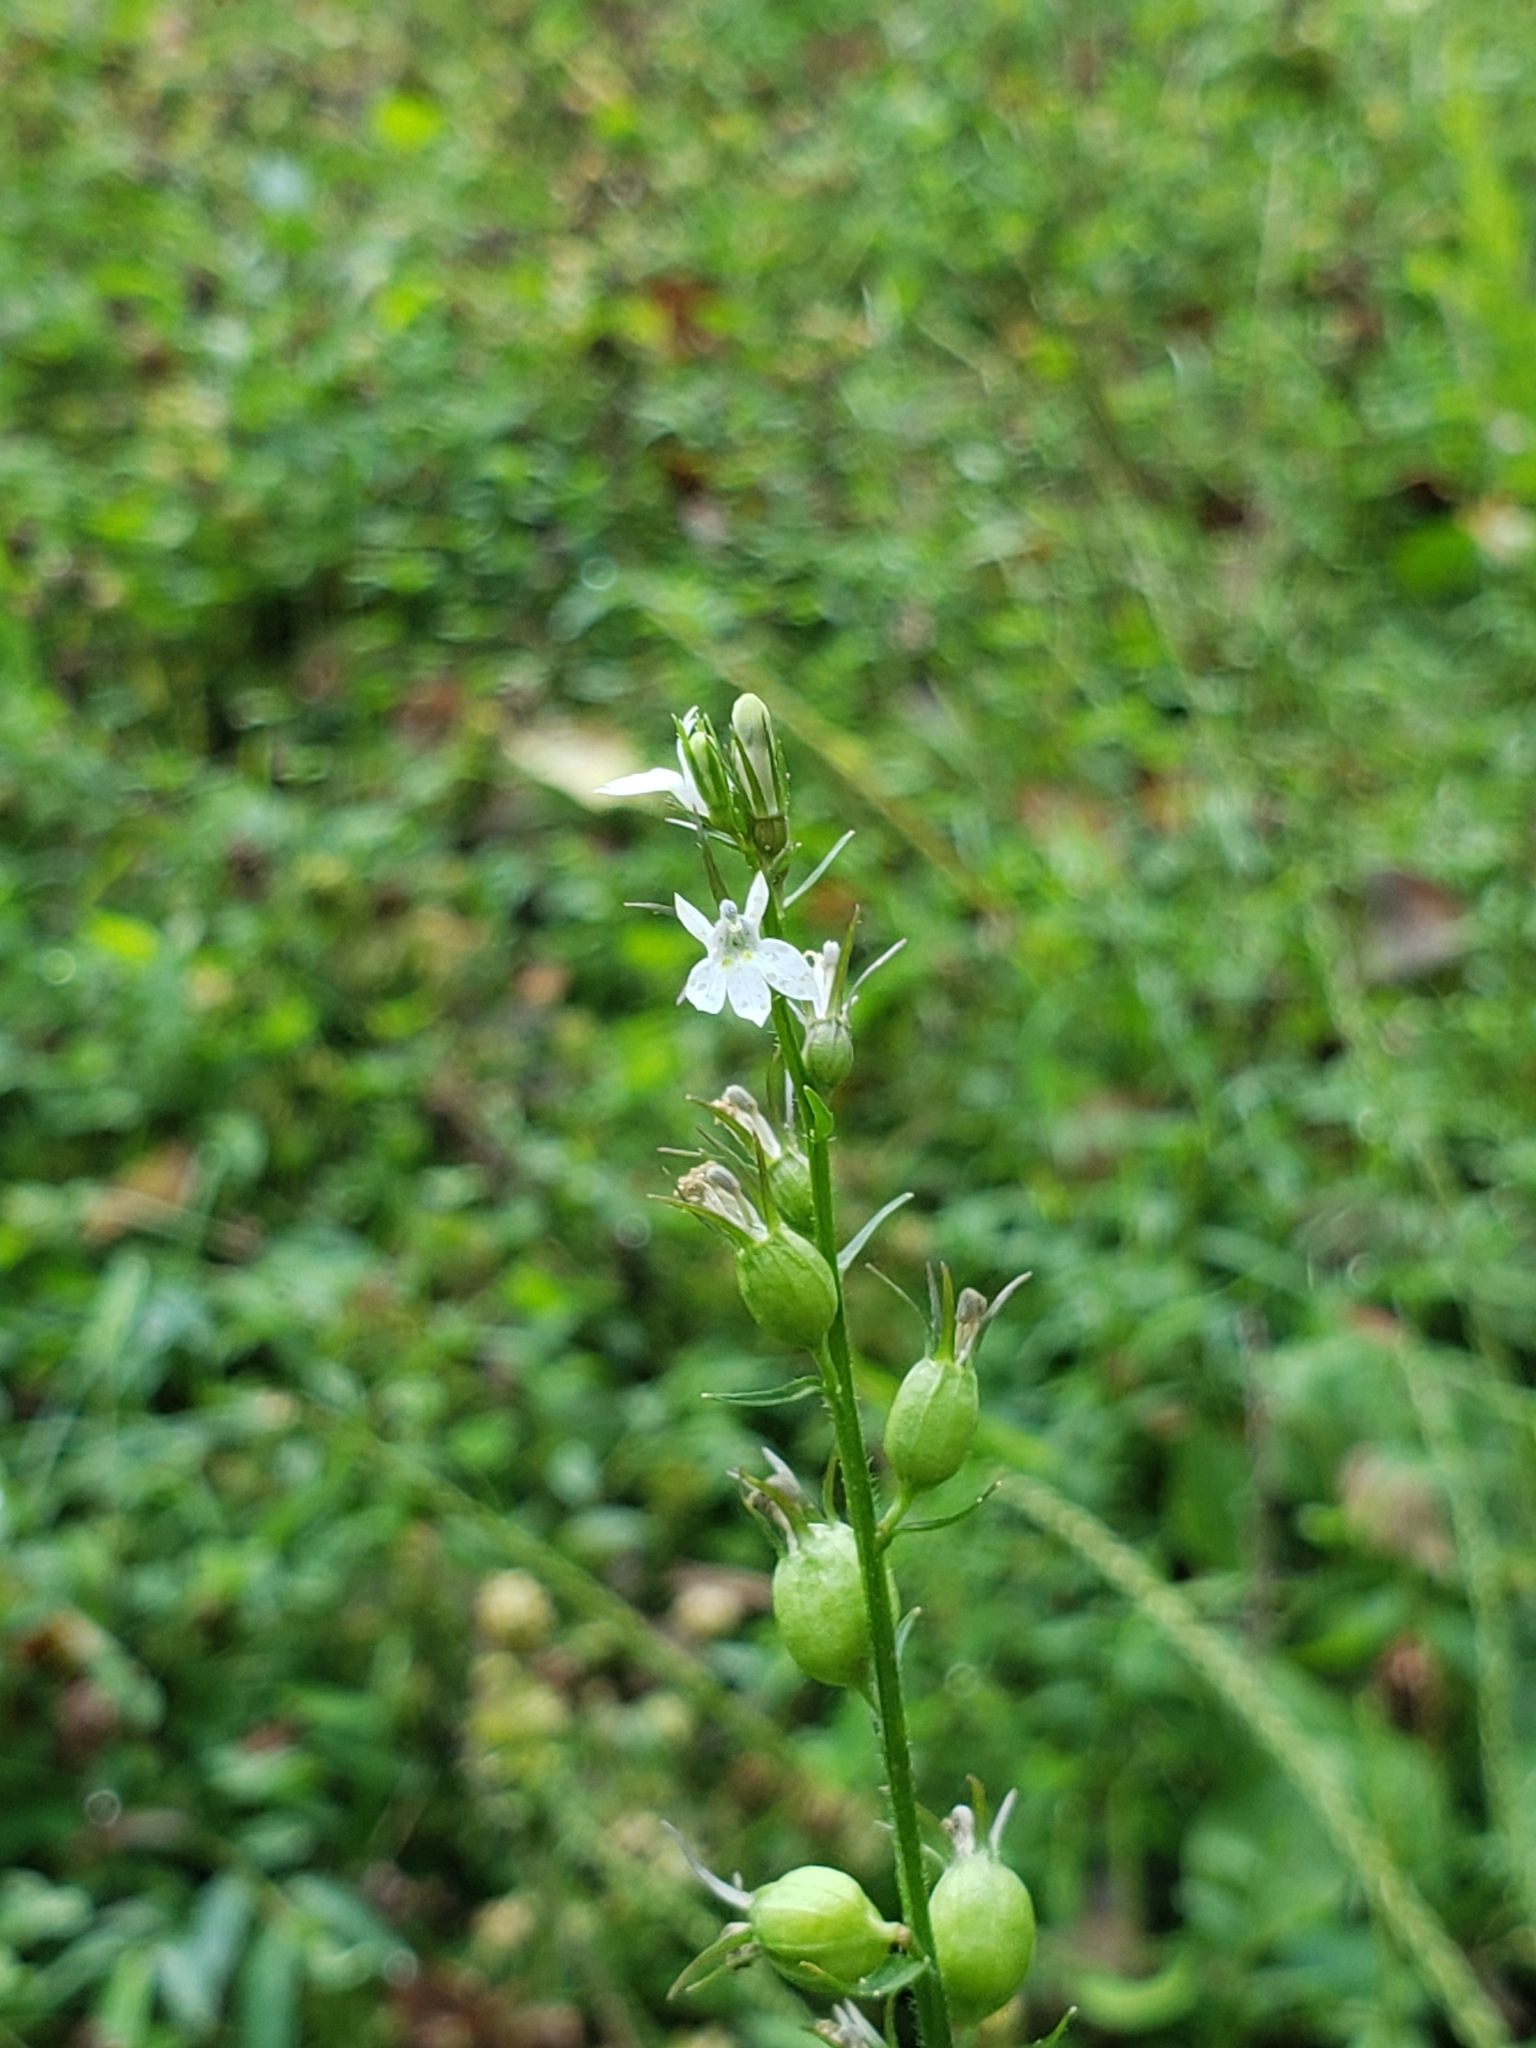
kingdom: Plantae
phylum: Tracheophyta
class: Magnoliopsida
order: Asterales
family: Campanulaceae
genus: Lobelia
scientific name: Lobelia inflata
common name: Indian tobacco
